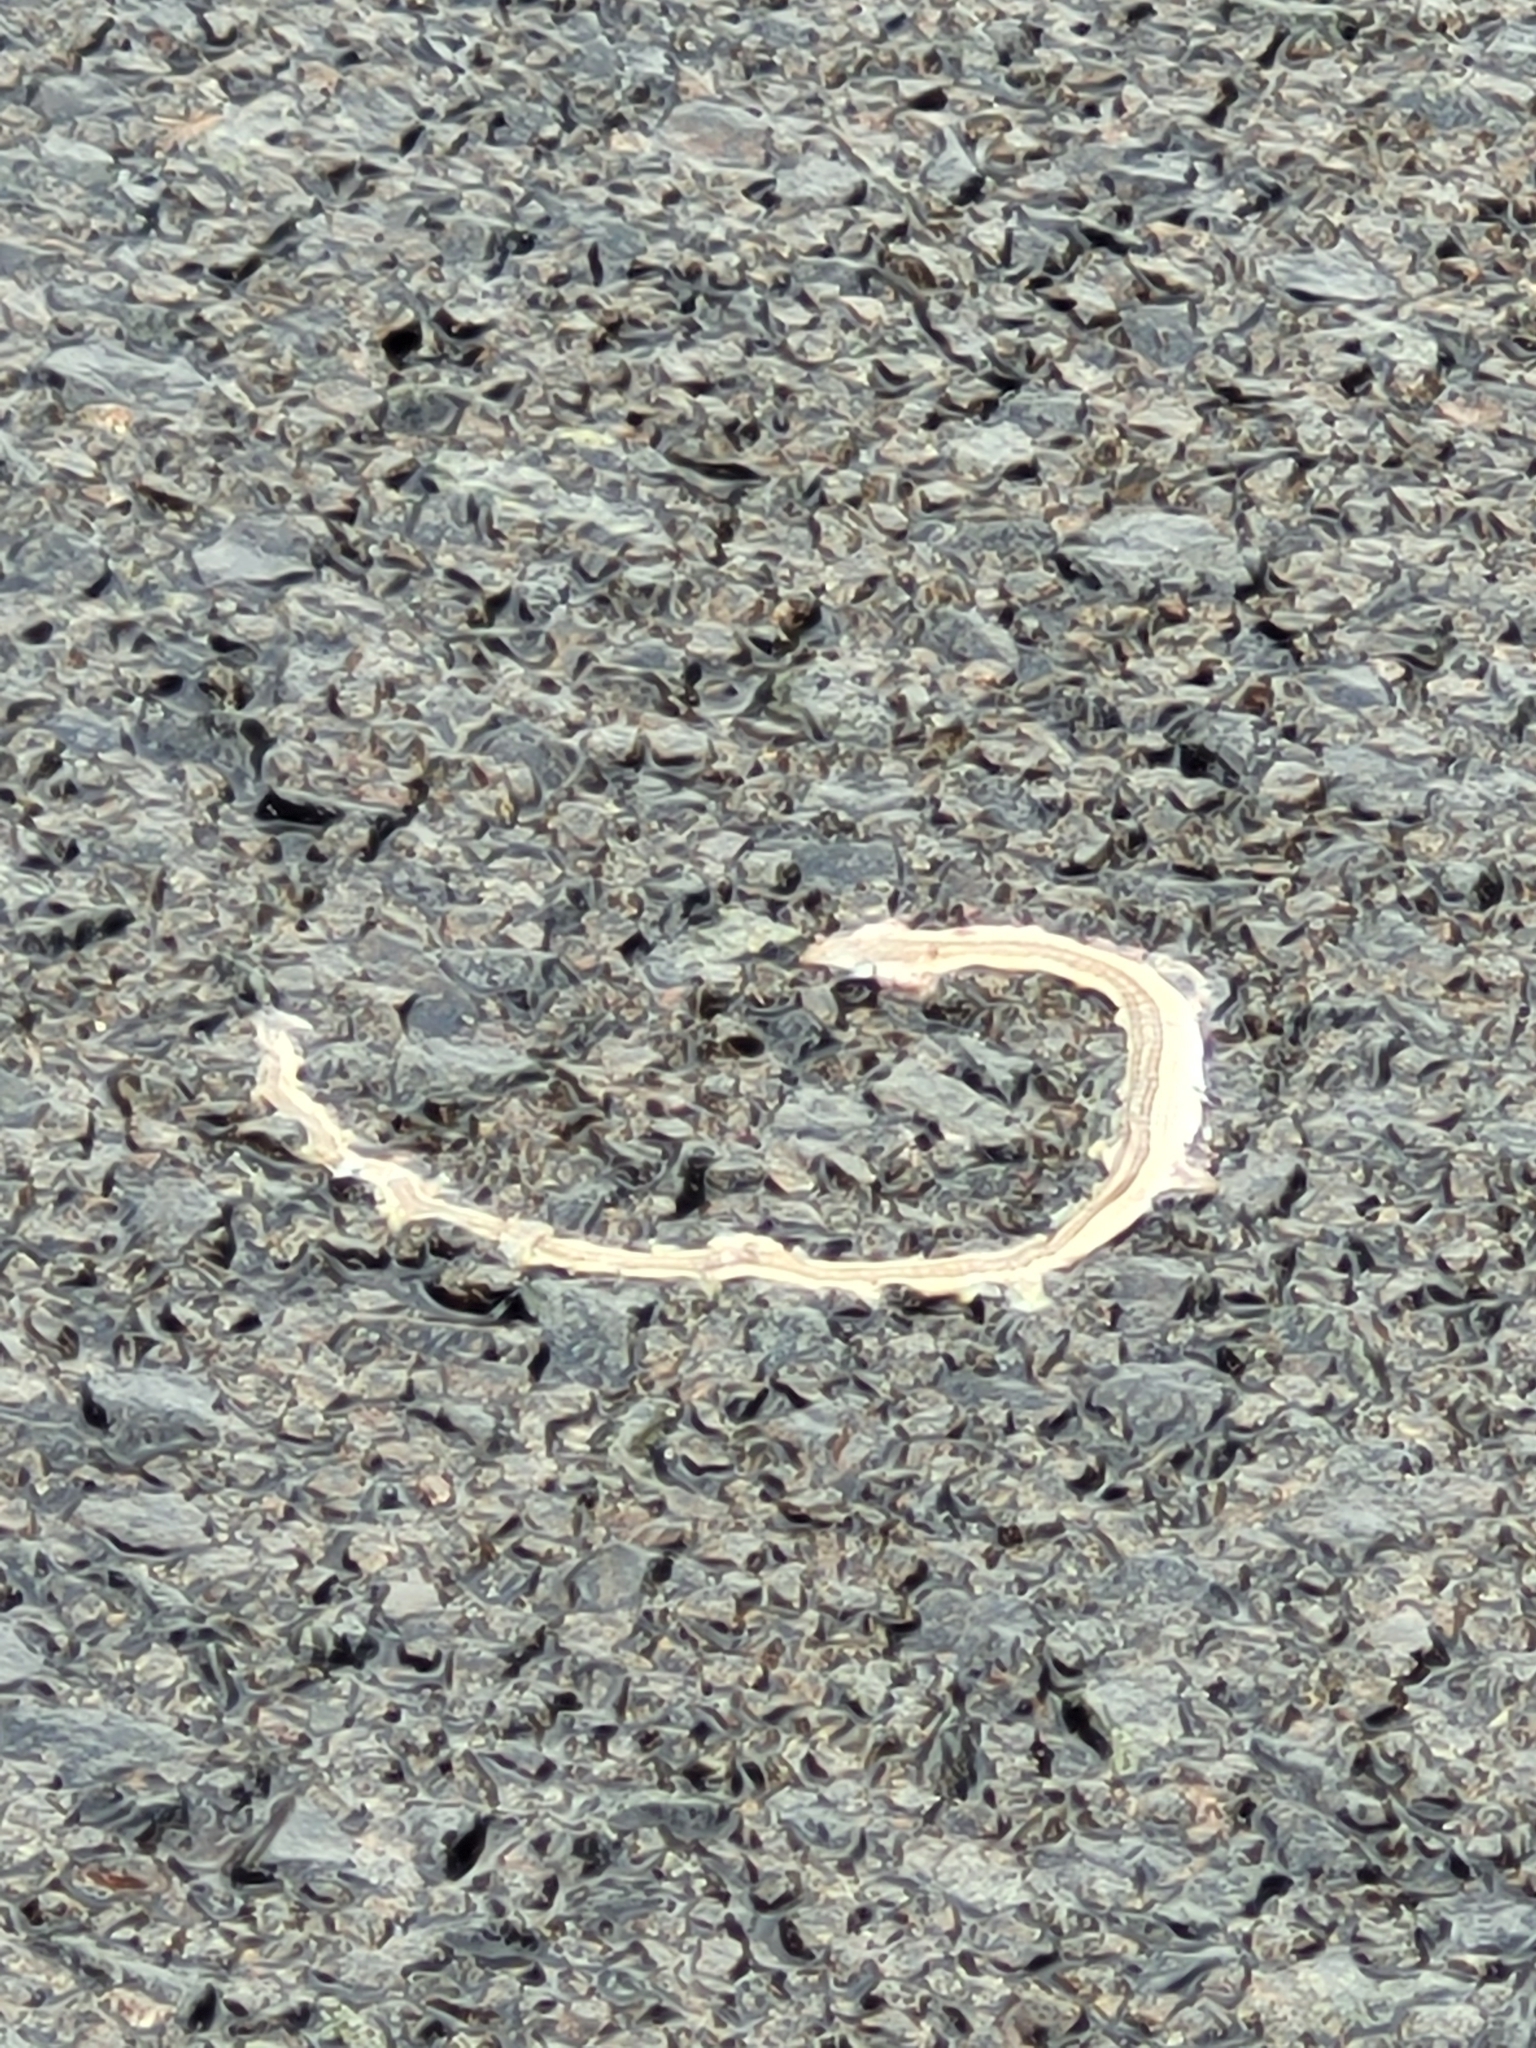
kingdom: Animalia
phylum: Chordata
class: Squamata
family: Cordylidae
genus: Chamaesaura
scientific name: Chamaesaura macrolepis
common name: Large-scaled grass lizard
